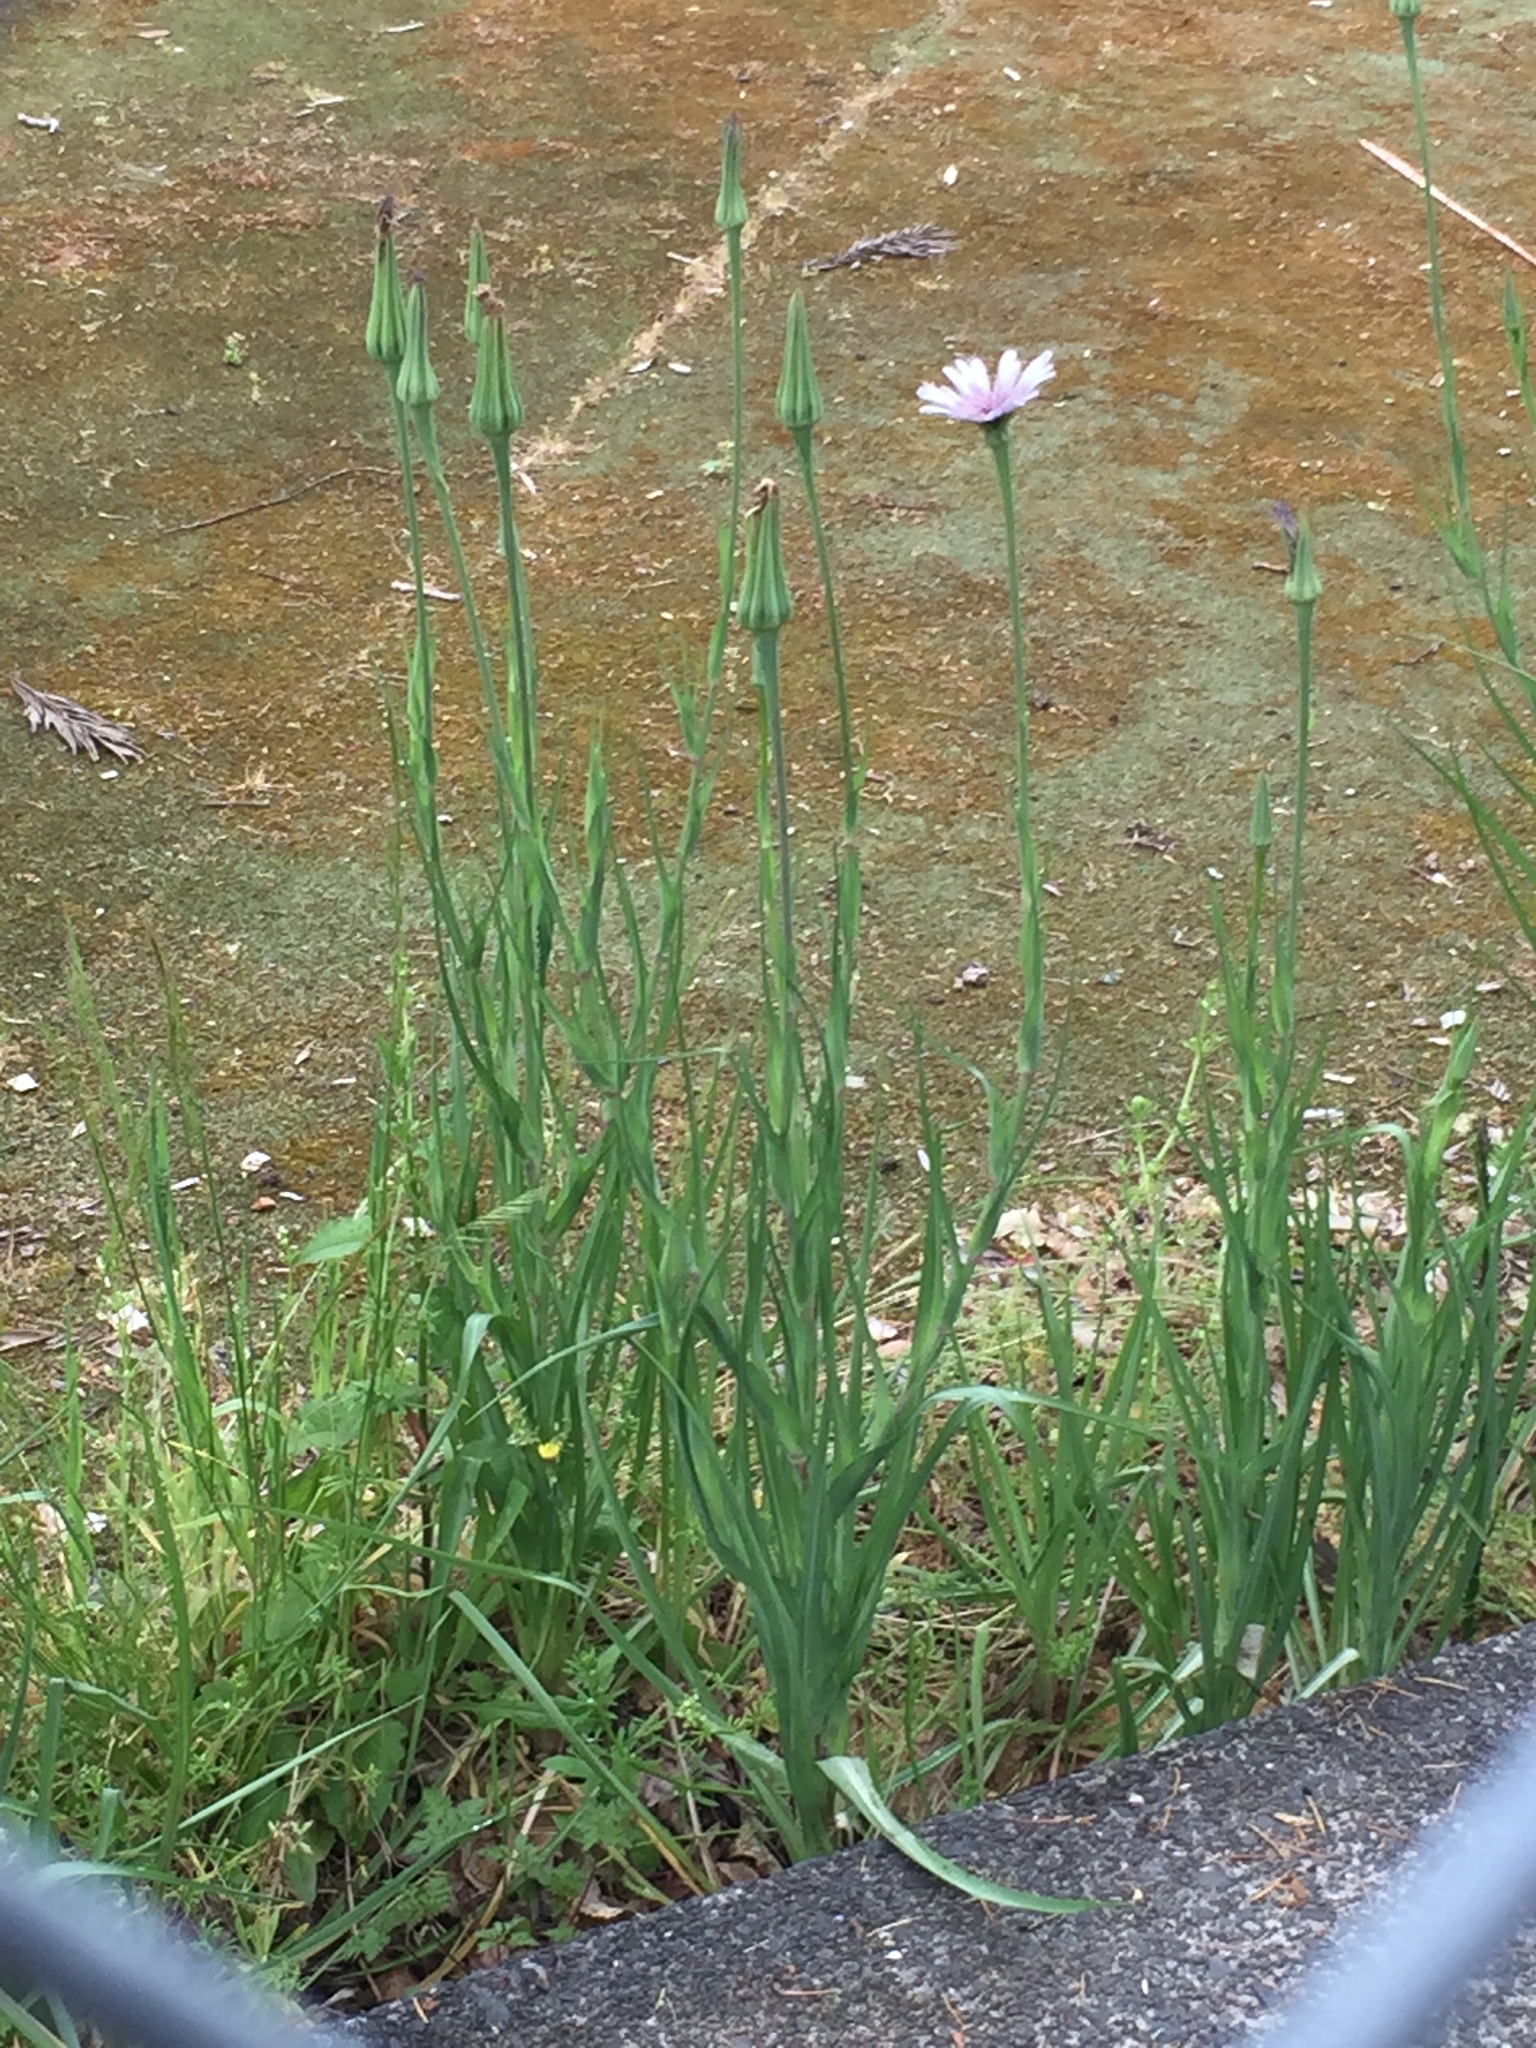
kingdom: Plantae
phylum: Tracheophyta
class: Magnoliopsida
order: Asterales
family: Asteraceae
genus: Tragopogon
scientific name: Tragopogon porrifolius
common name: Salsify
